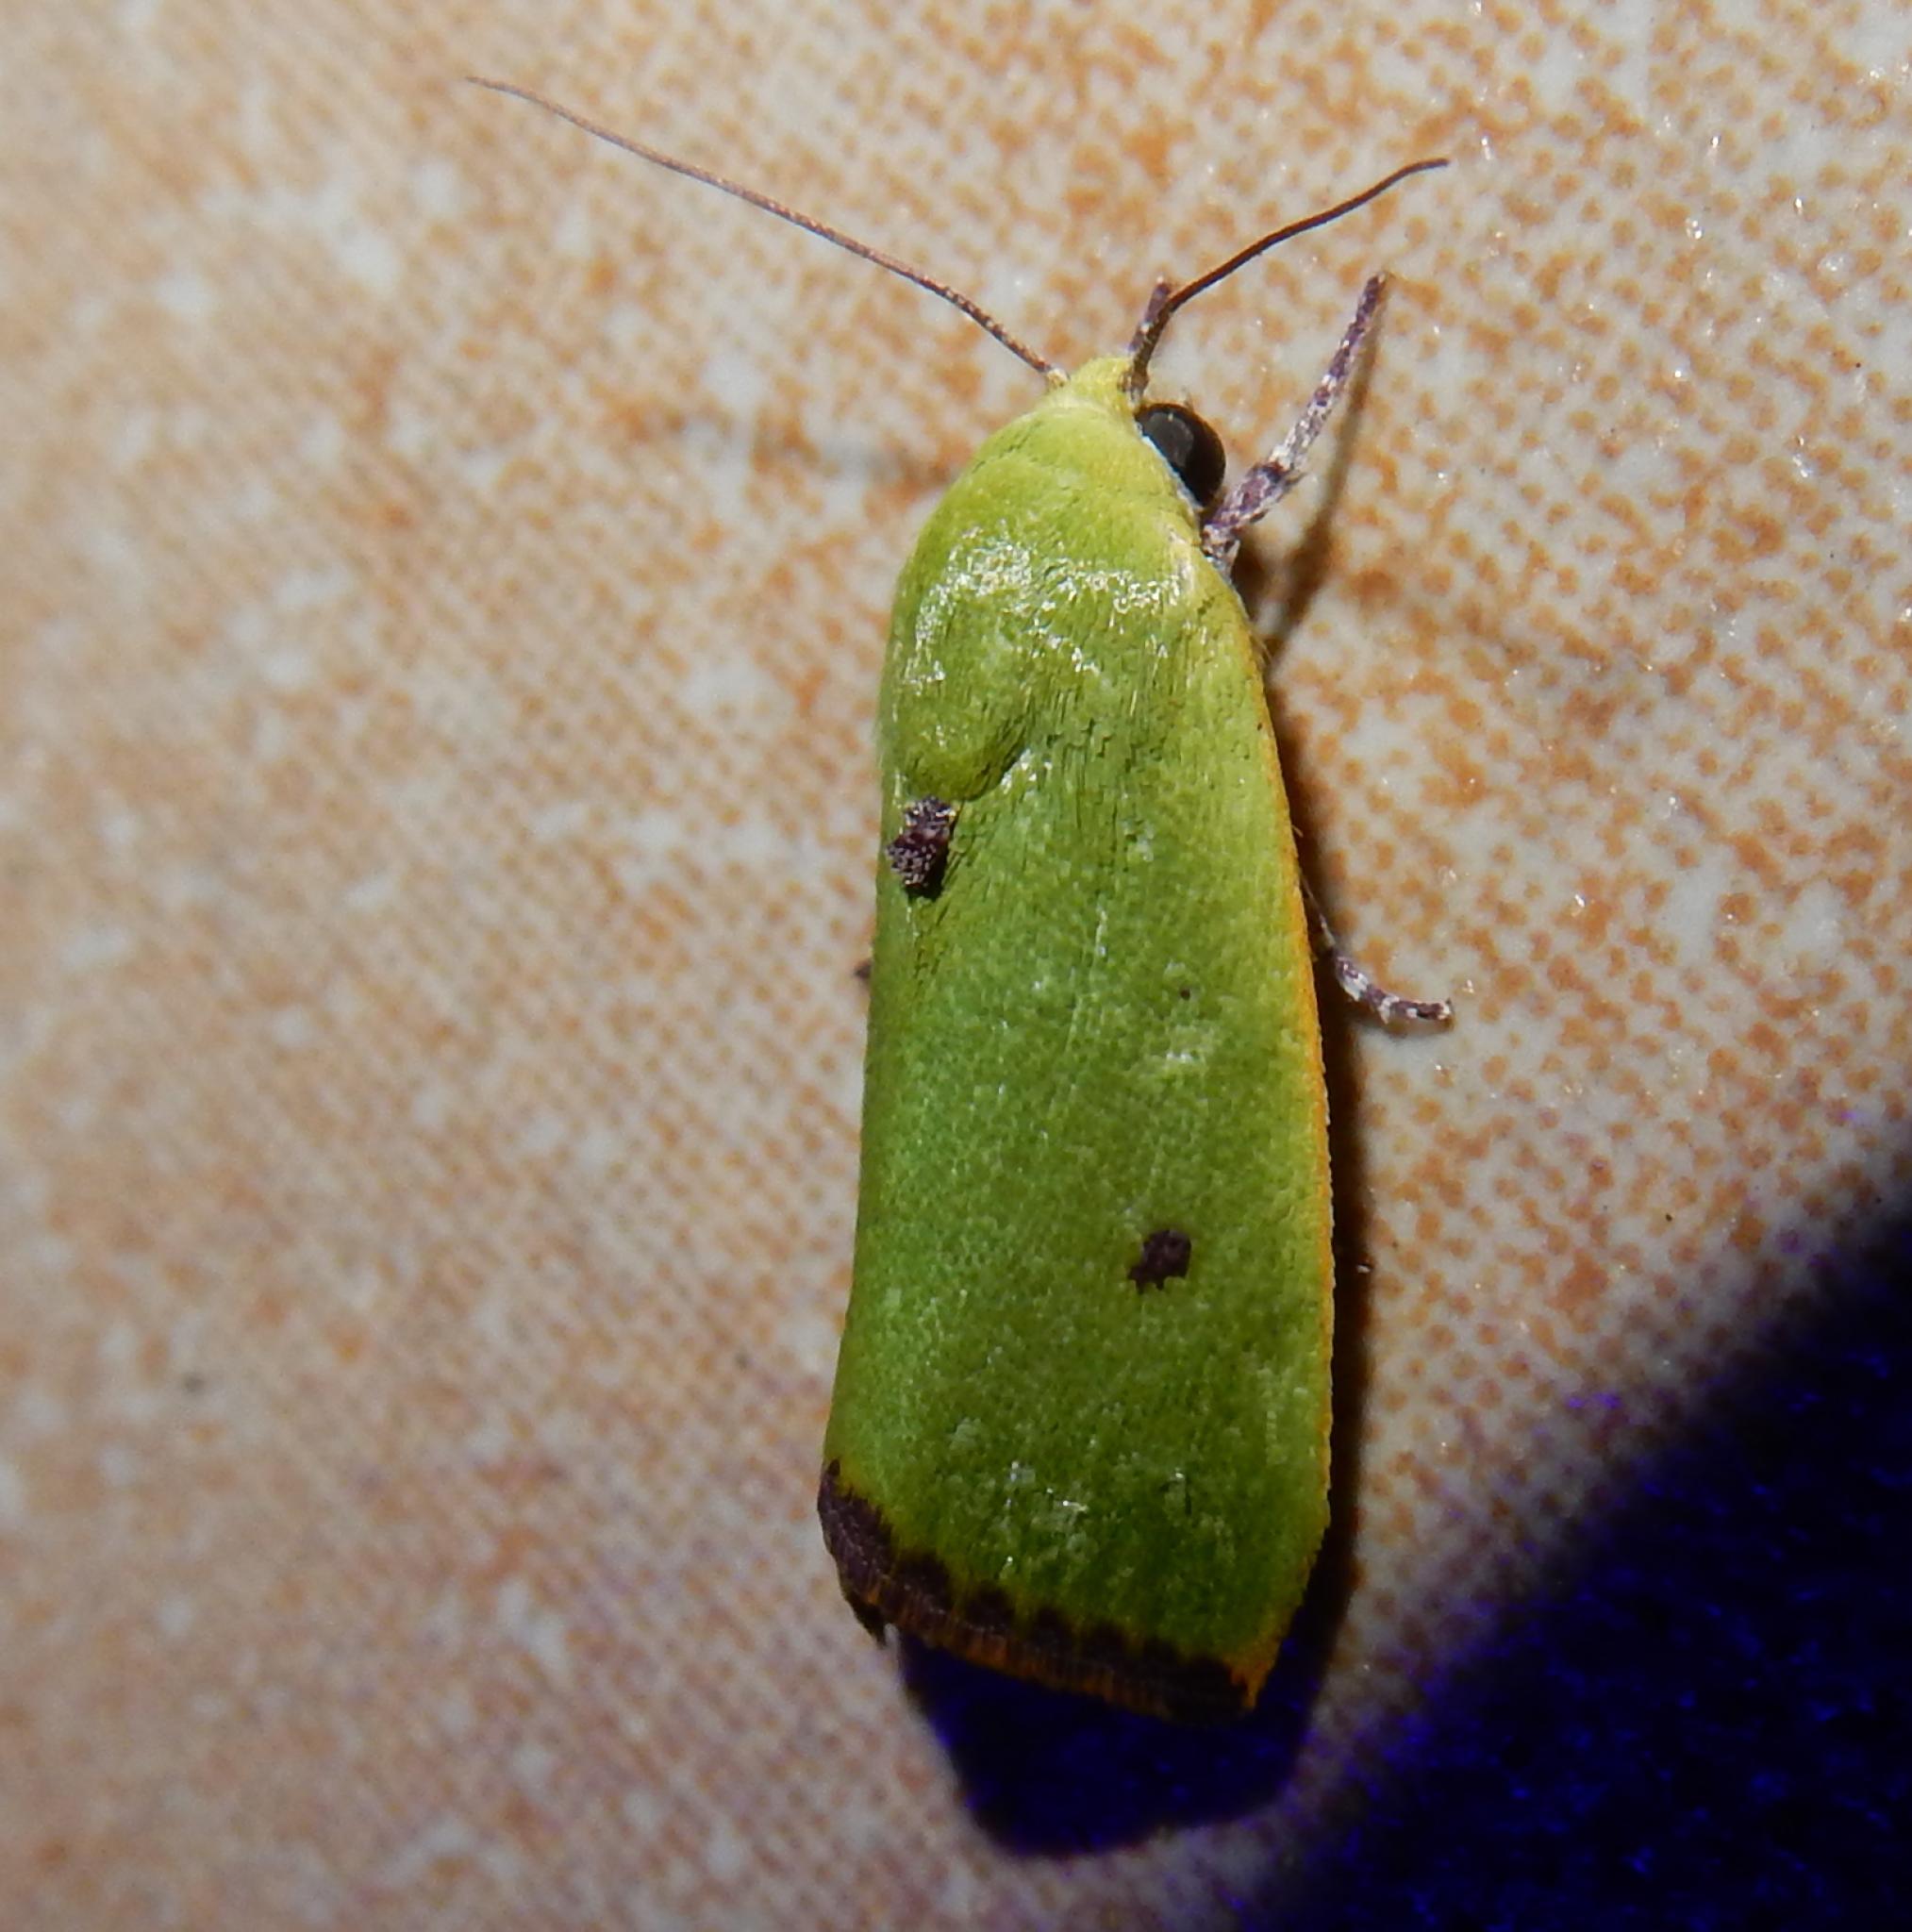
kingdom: Animalia
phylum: Arthropoda
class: Insecta
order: Lepidoptera
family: Nolidae
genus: Earias
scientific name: Earias cupreoviridis
